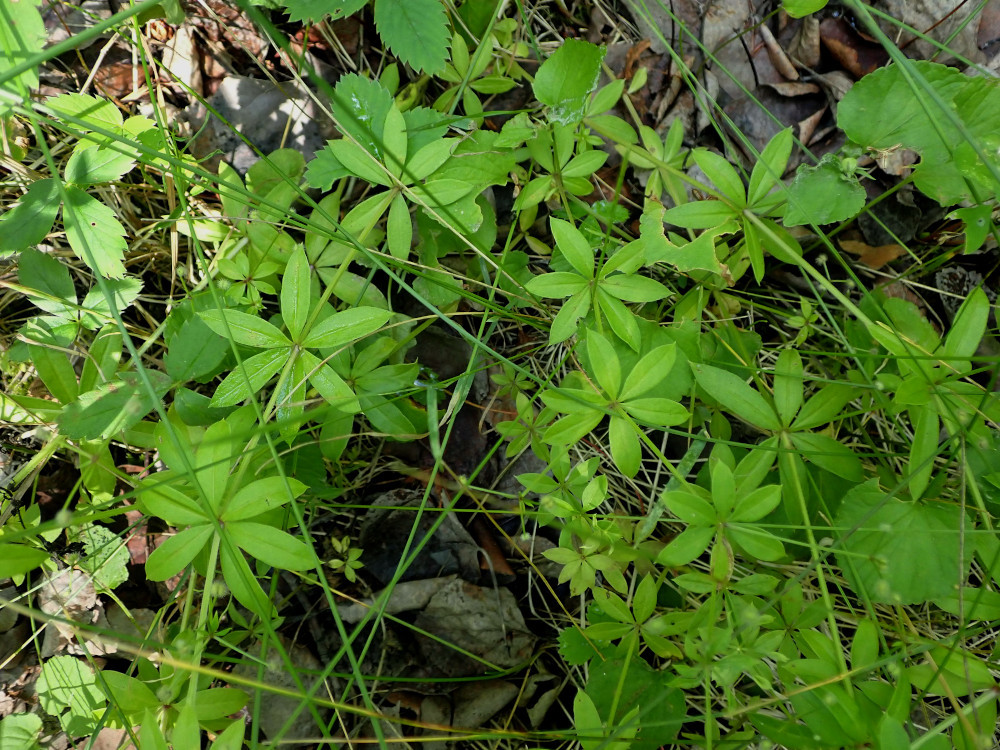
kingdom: Plantae
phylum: Tracheophyta
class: Magnoliopsida
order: Gentianales
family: Rubiaceae
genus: Galium
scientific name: Galium triflorum
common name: Fragrant bedstraw
